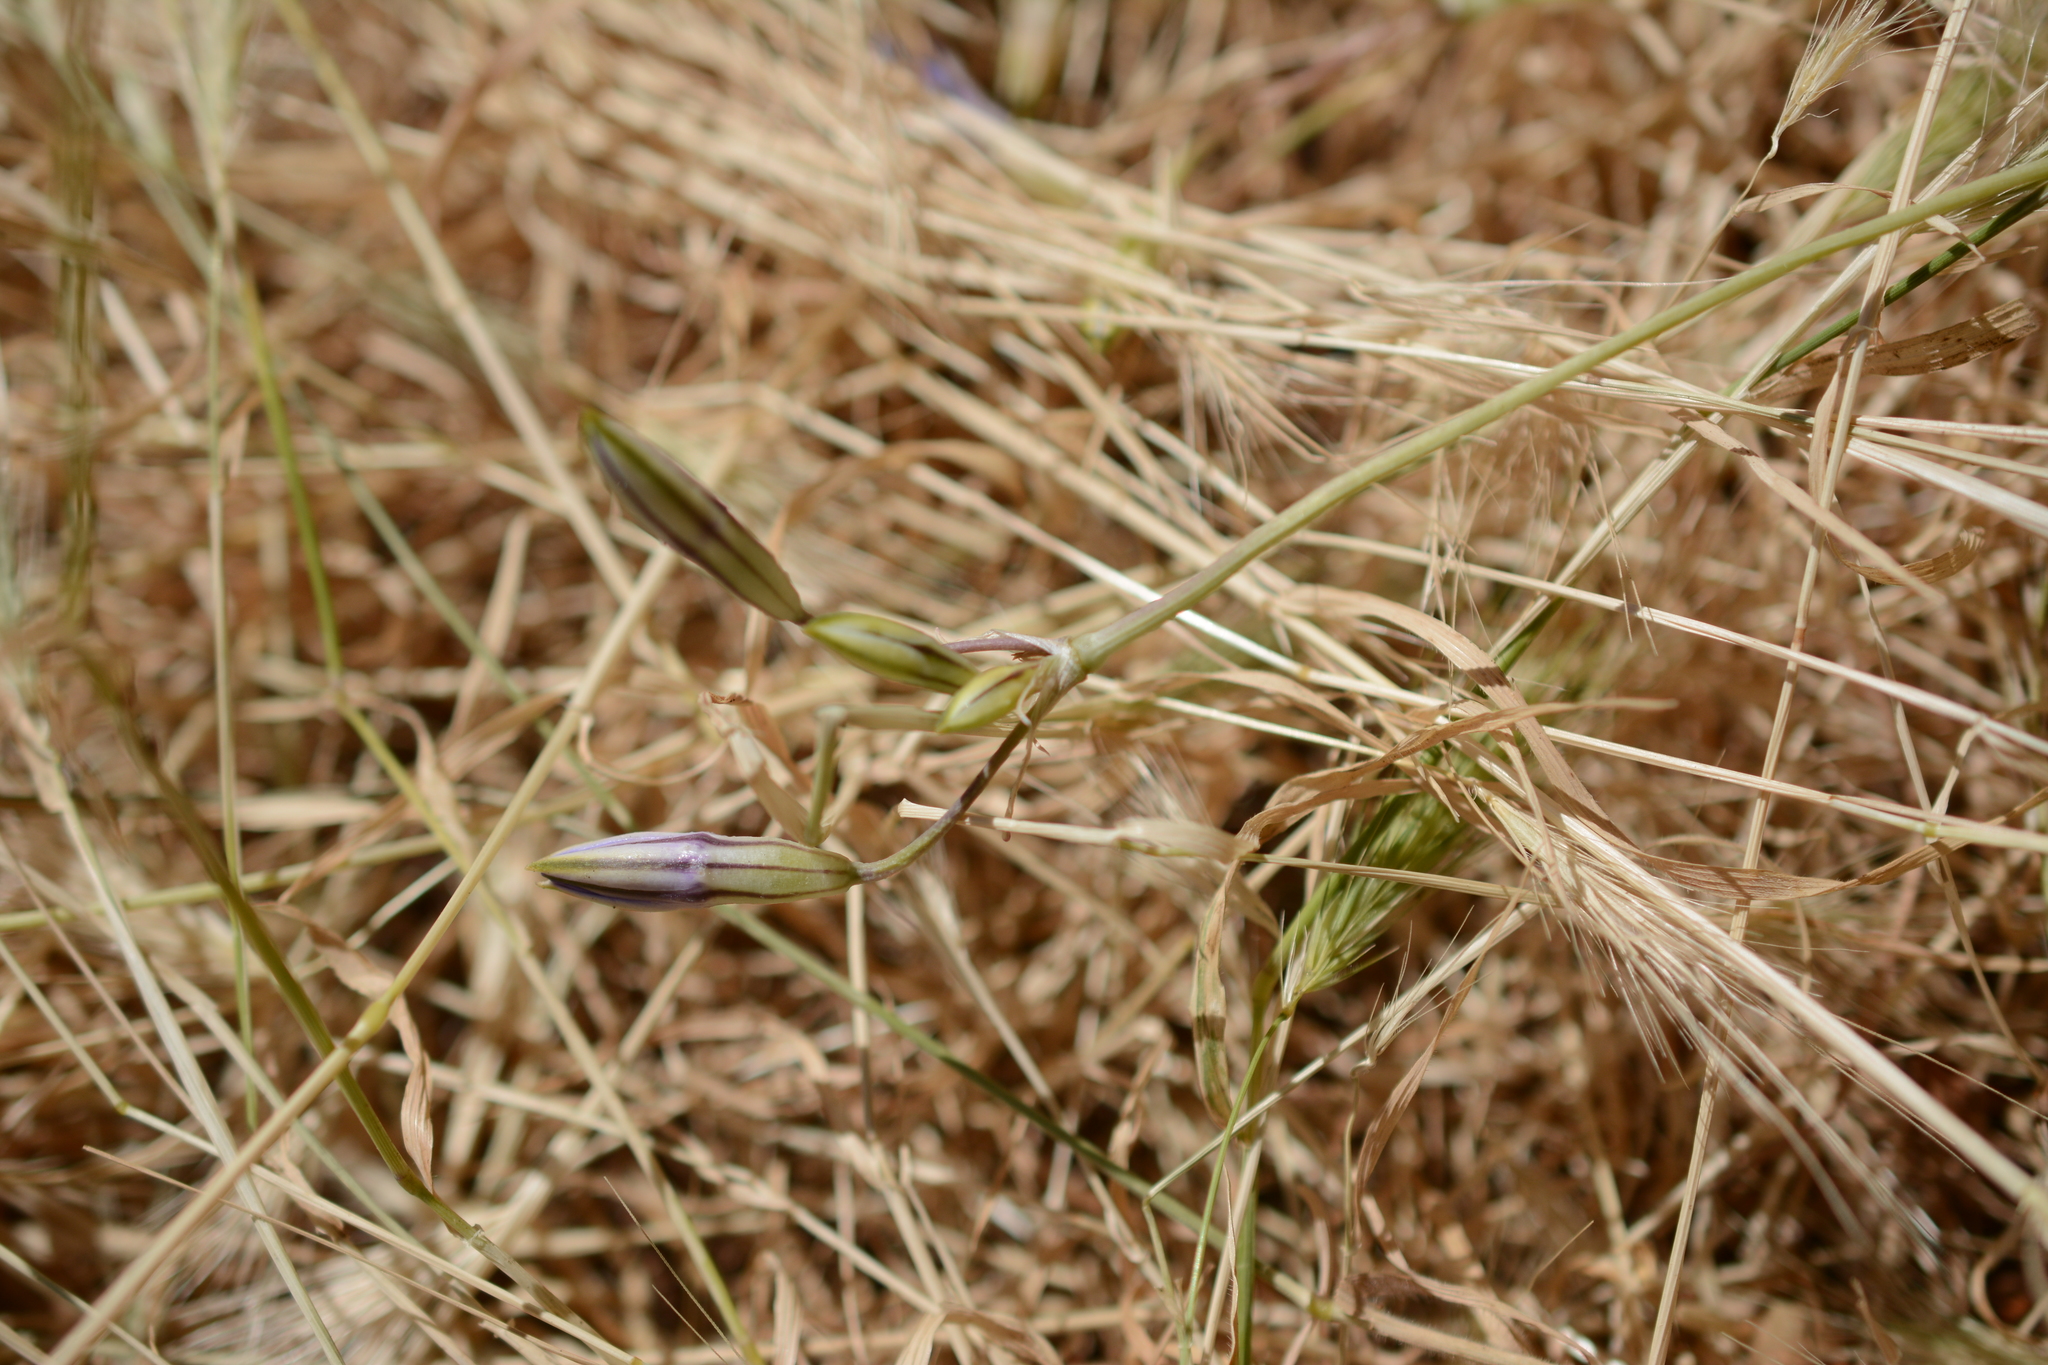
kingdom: Plantae
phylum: Tracheophyta
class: Liliopsida
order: Asparagales
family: Asparagaceae
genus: Brodiaea
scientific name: Brodiaea coronaria
